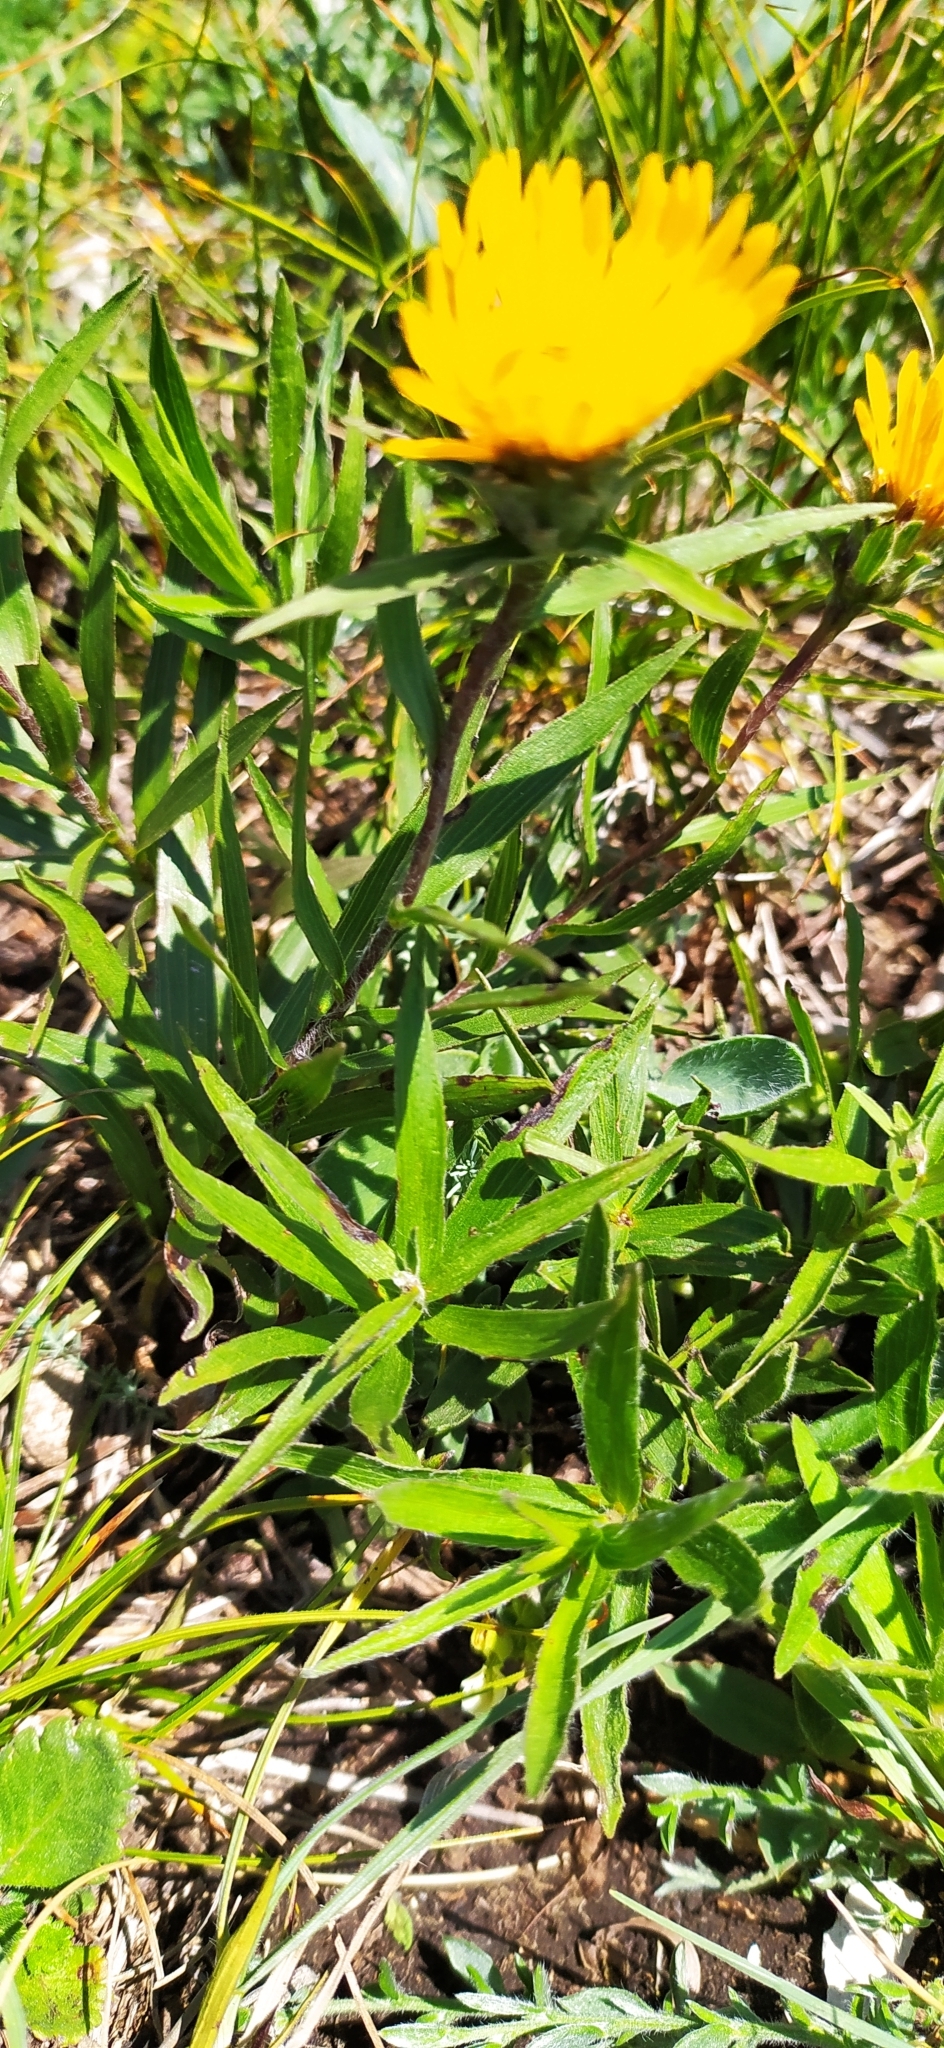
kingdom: Plantae
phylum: Tracheophyta
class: Magnoliopsida
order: Asterales
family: Asteraceae
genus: Pentanema
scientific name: Pentanema ensifolium
